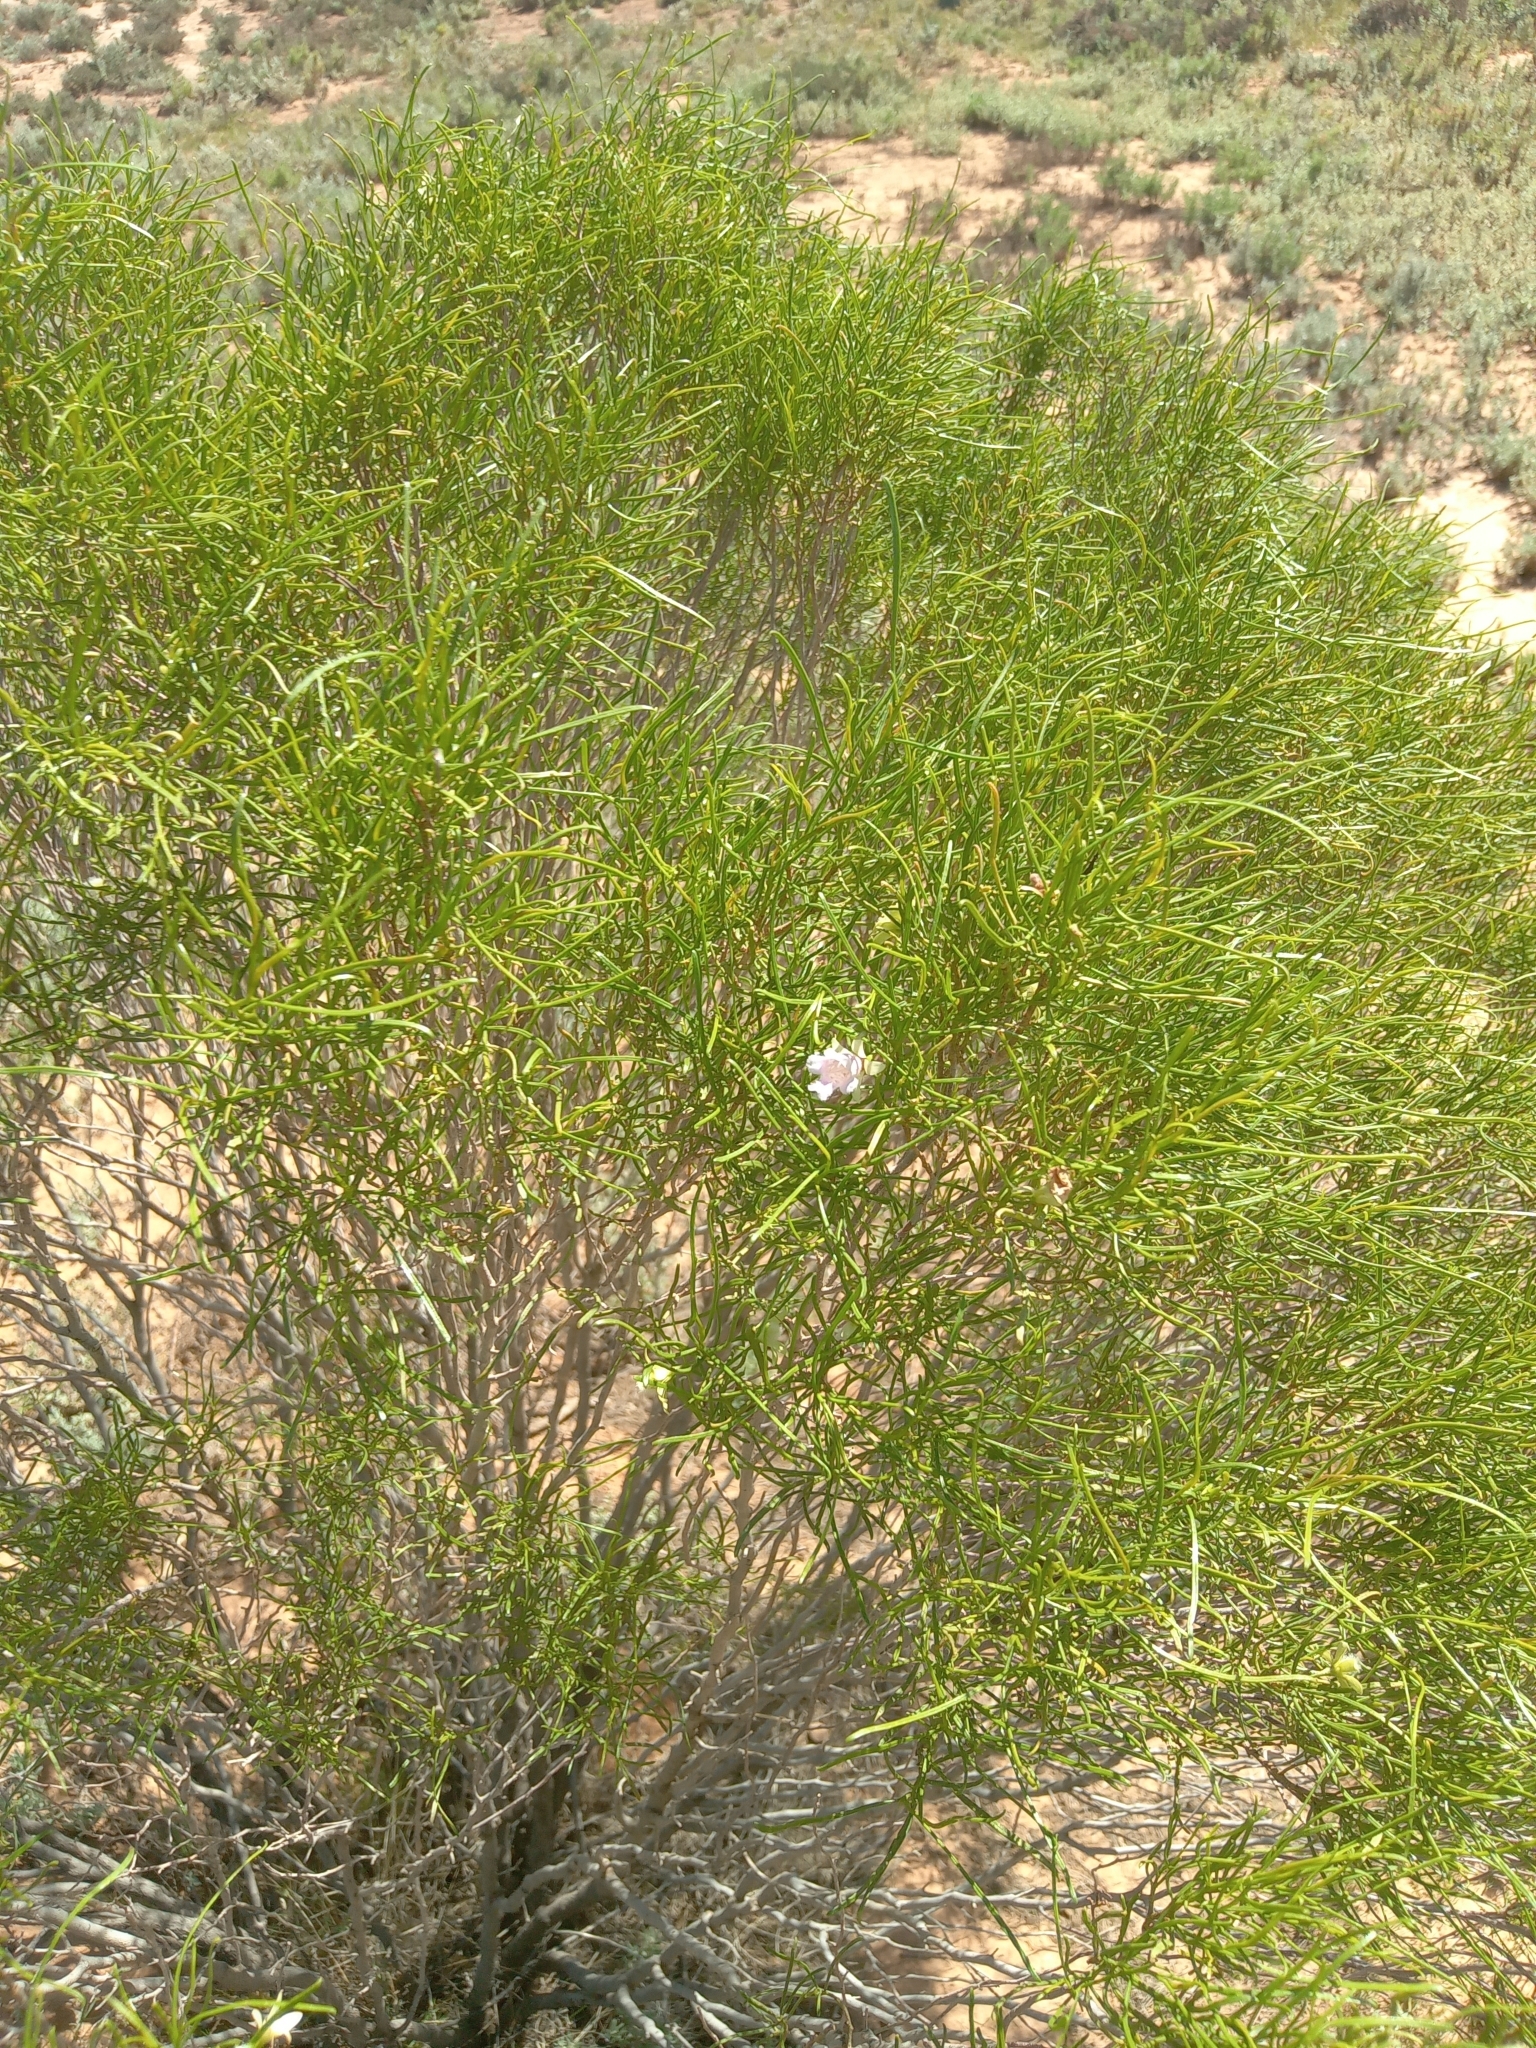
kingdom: Plantae
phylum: Tracheophyta
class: Magnoliopsida
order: Lamiales
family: Scrophulariaceae
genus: Eremophila
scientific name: Eremophila sturtii
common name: Narrow-leaf emubush
